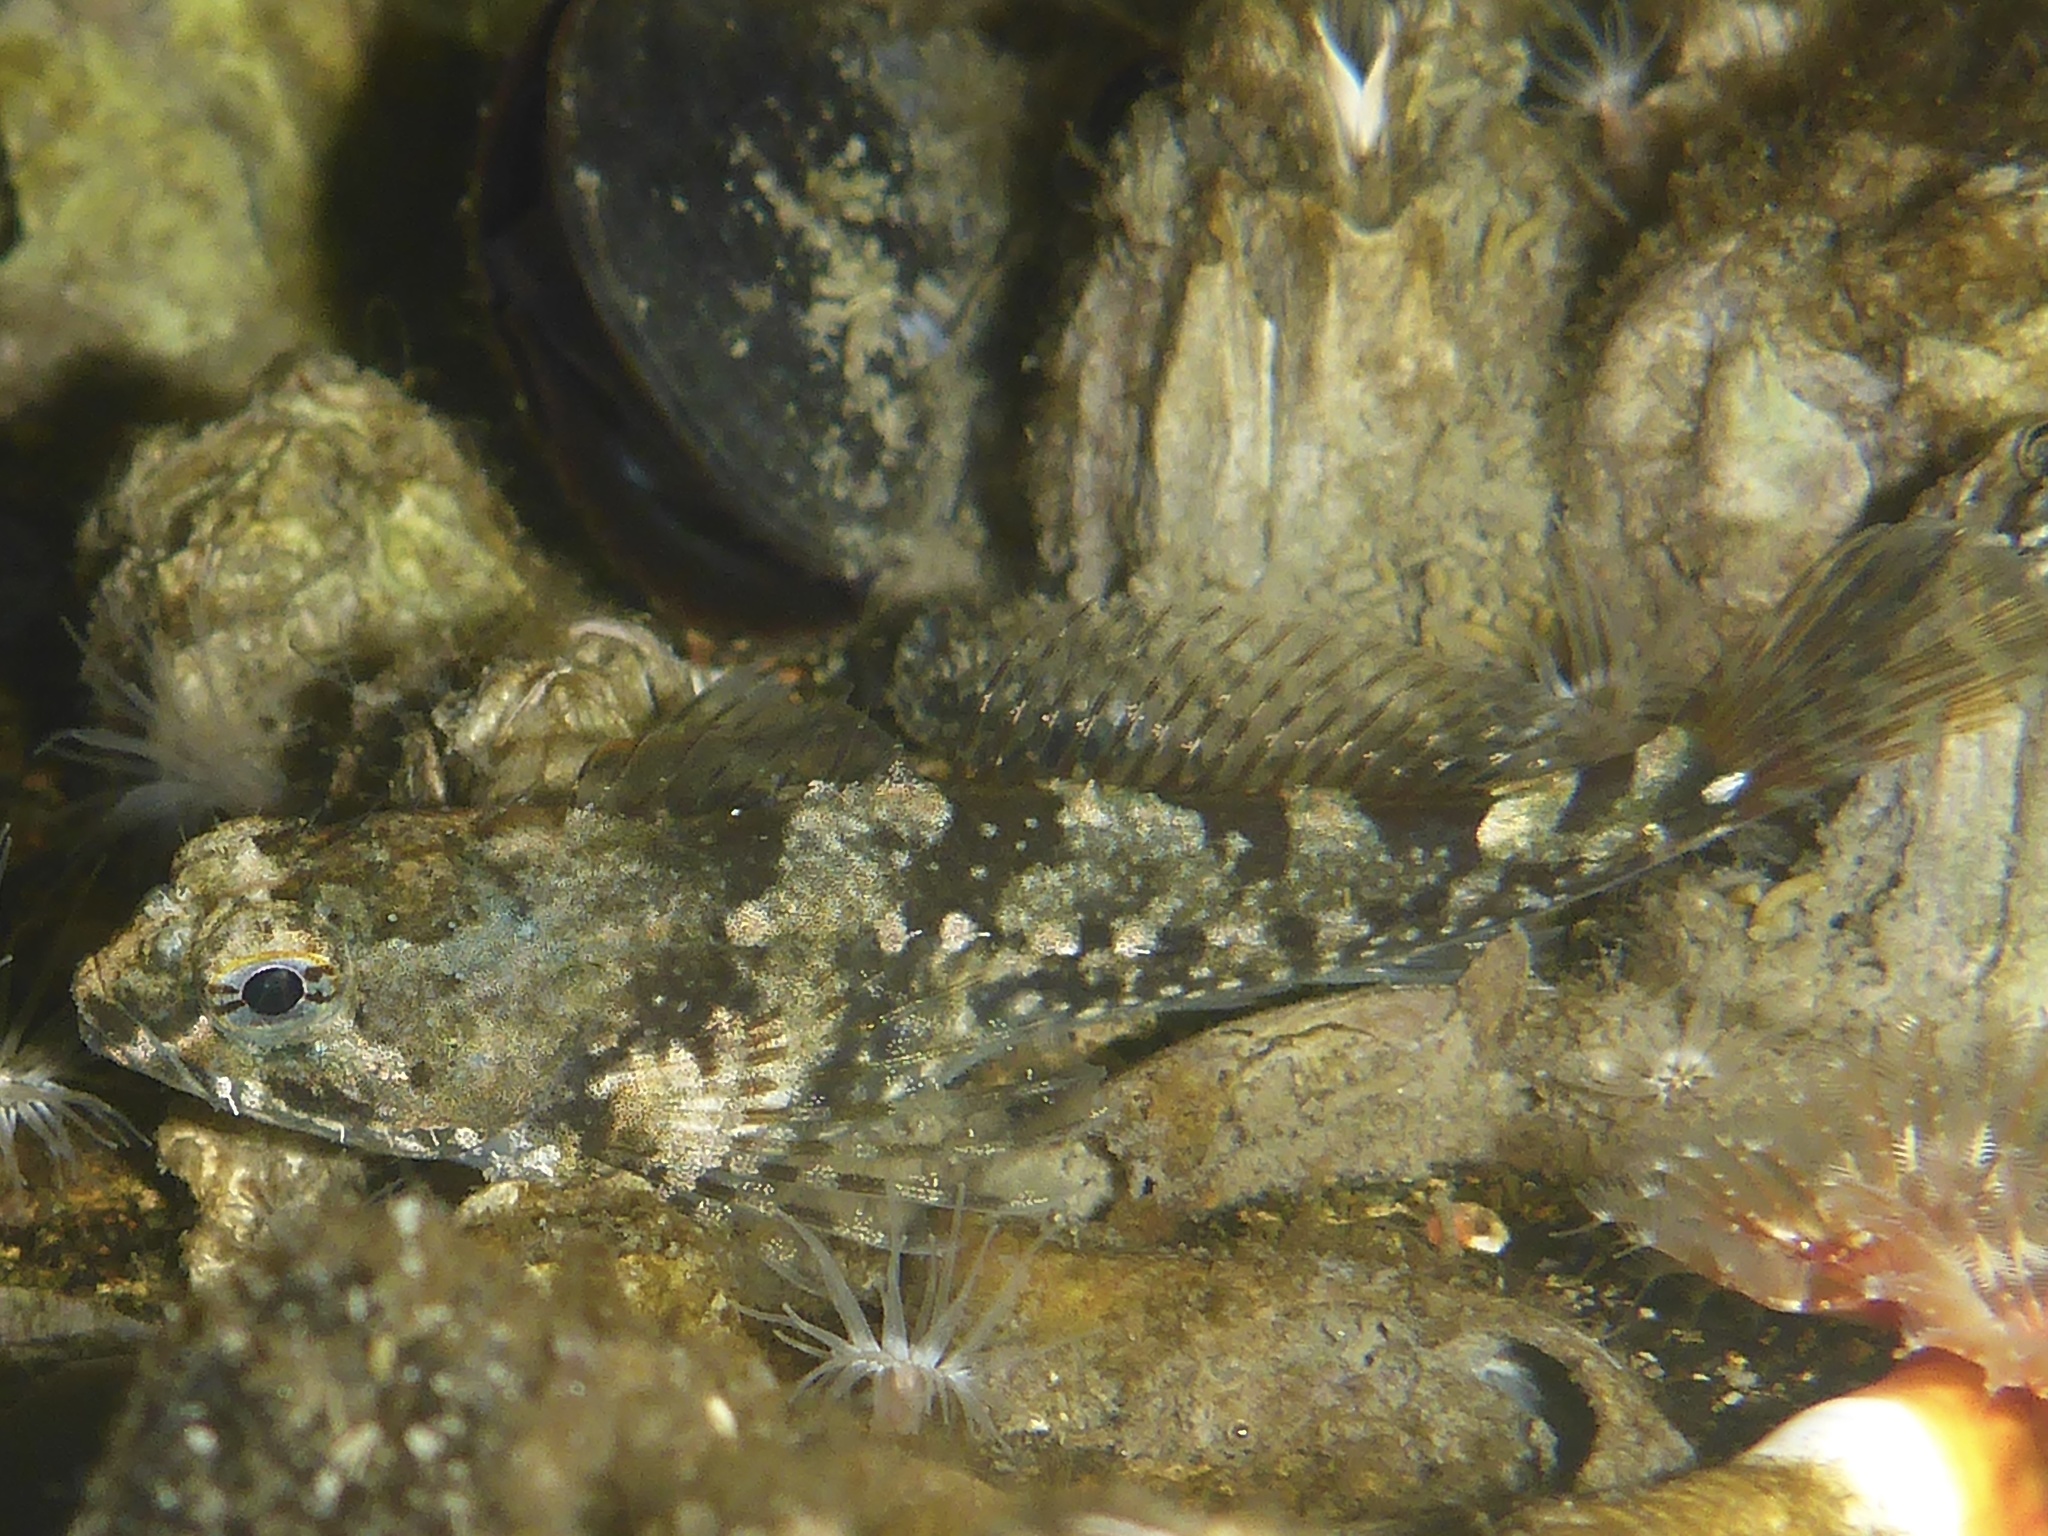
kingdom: Animalia
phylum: Chordata
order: Scorpaeniformes
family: Cottidae
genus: Oligocottus
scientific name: Oligocottus maculosus
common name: Tidepool sculpin
